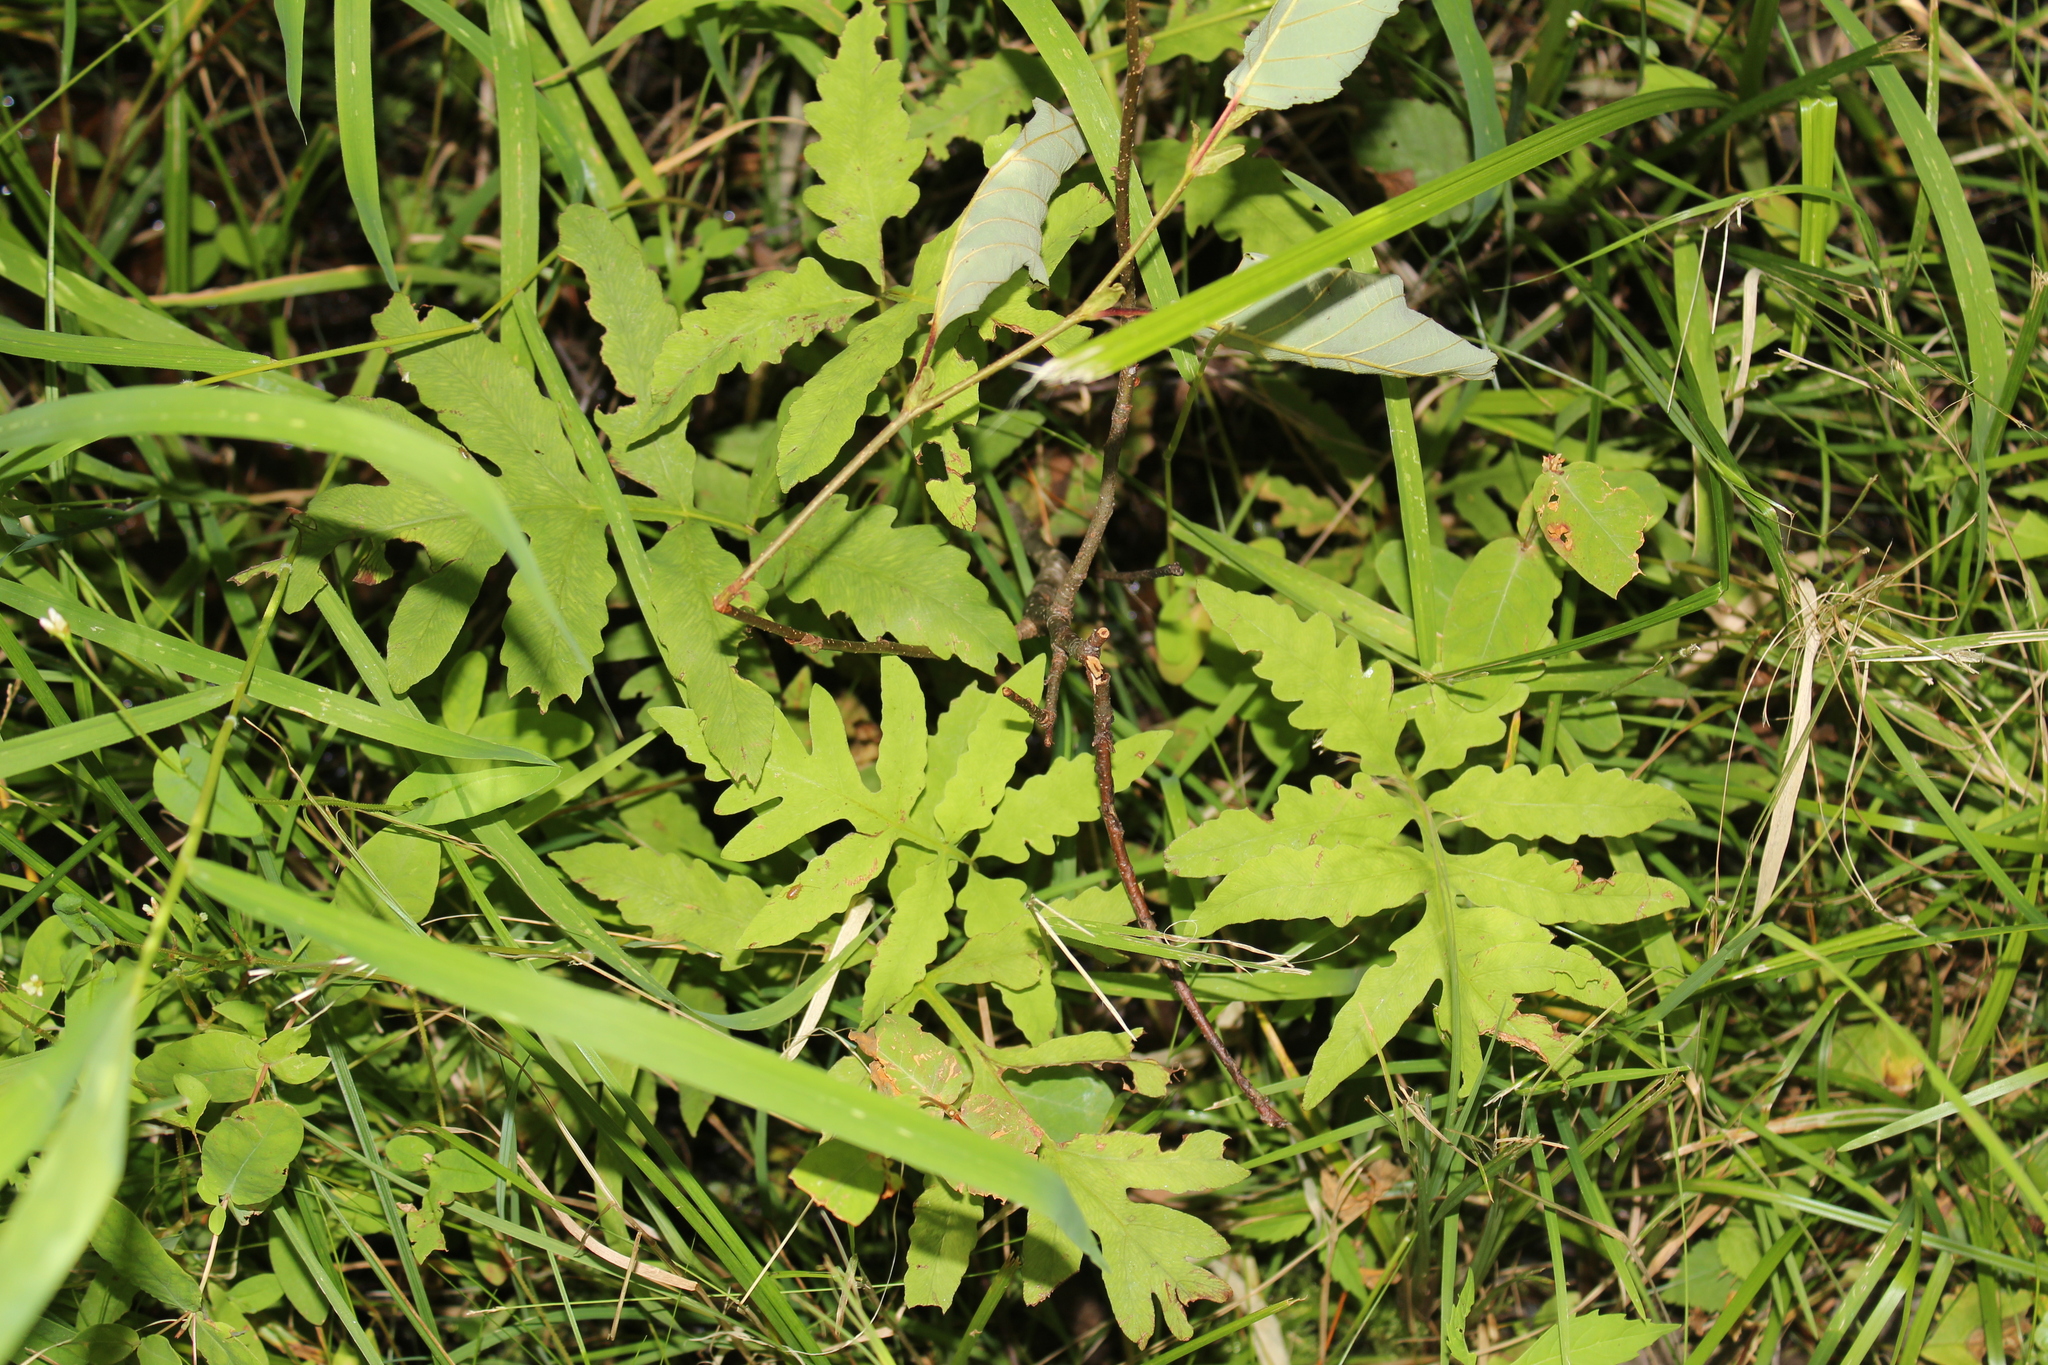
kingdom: Plantae
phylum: Tracheophyta
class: Polypodiopsida
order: Polypodiales
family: Onocleaceae
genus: Onoclea
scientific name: Onoclea sensibilis
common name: Sensitive fern
